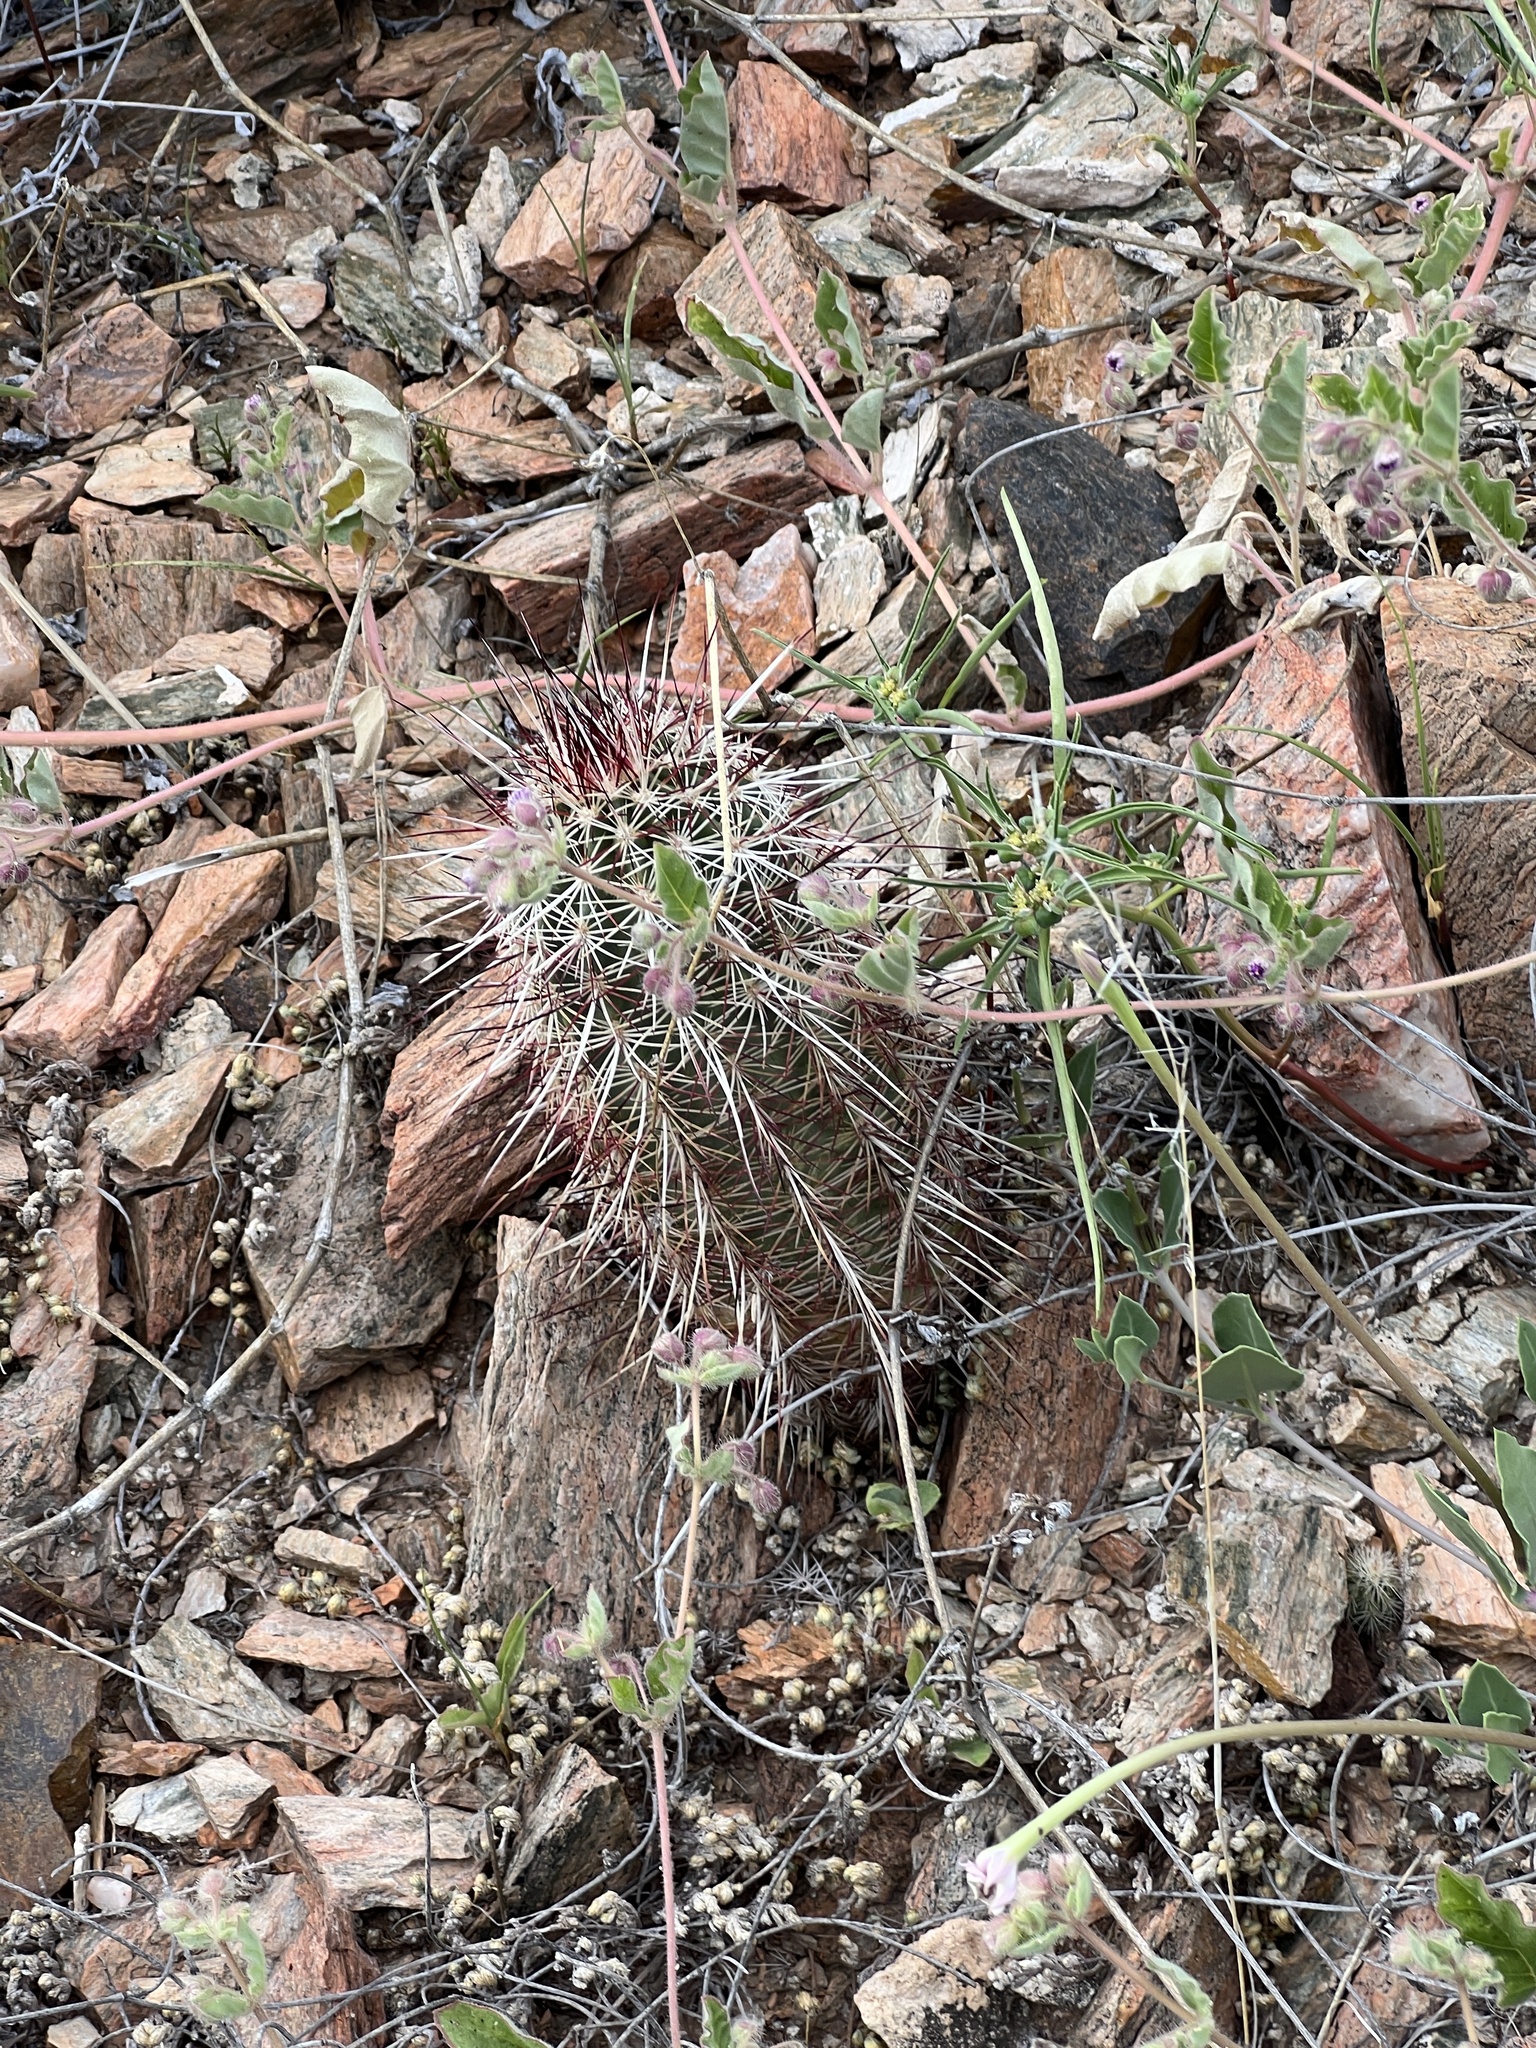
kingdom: Plantae
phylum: Tracheophyta
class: Magnoliopsida
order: Caryophyllales
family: Cactaceae
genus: Echinocereus
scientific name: Echinocereus viridiflorus
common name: Nylon hedgehog cactus
